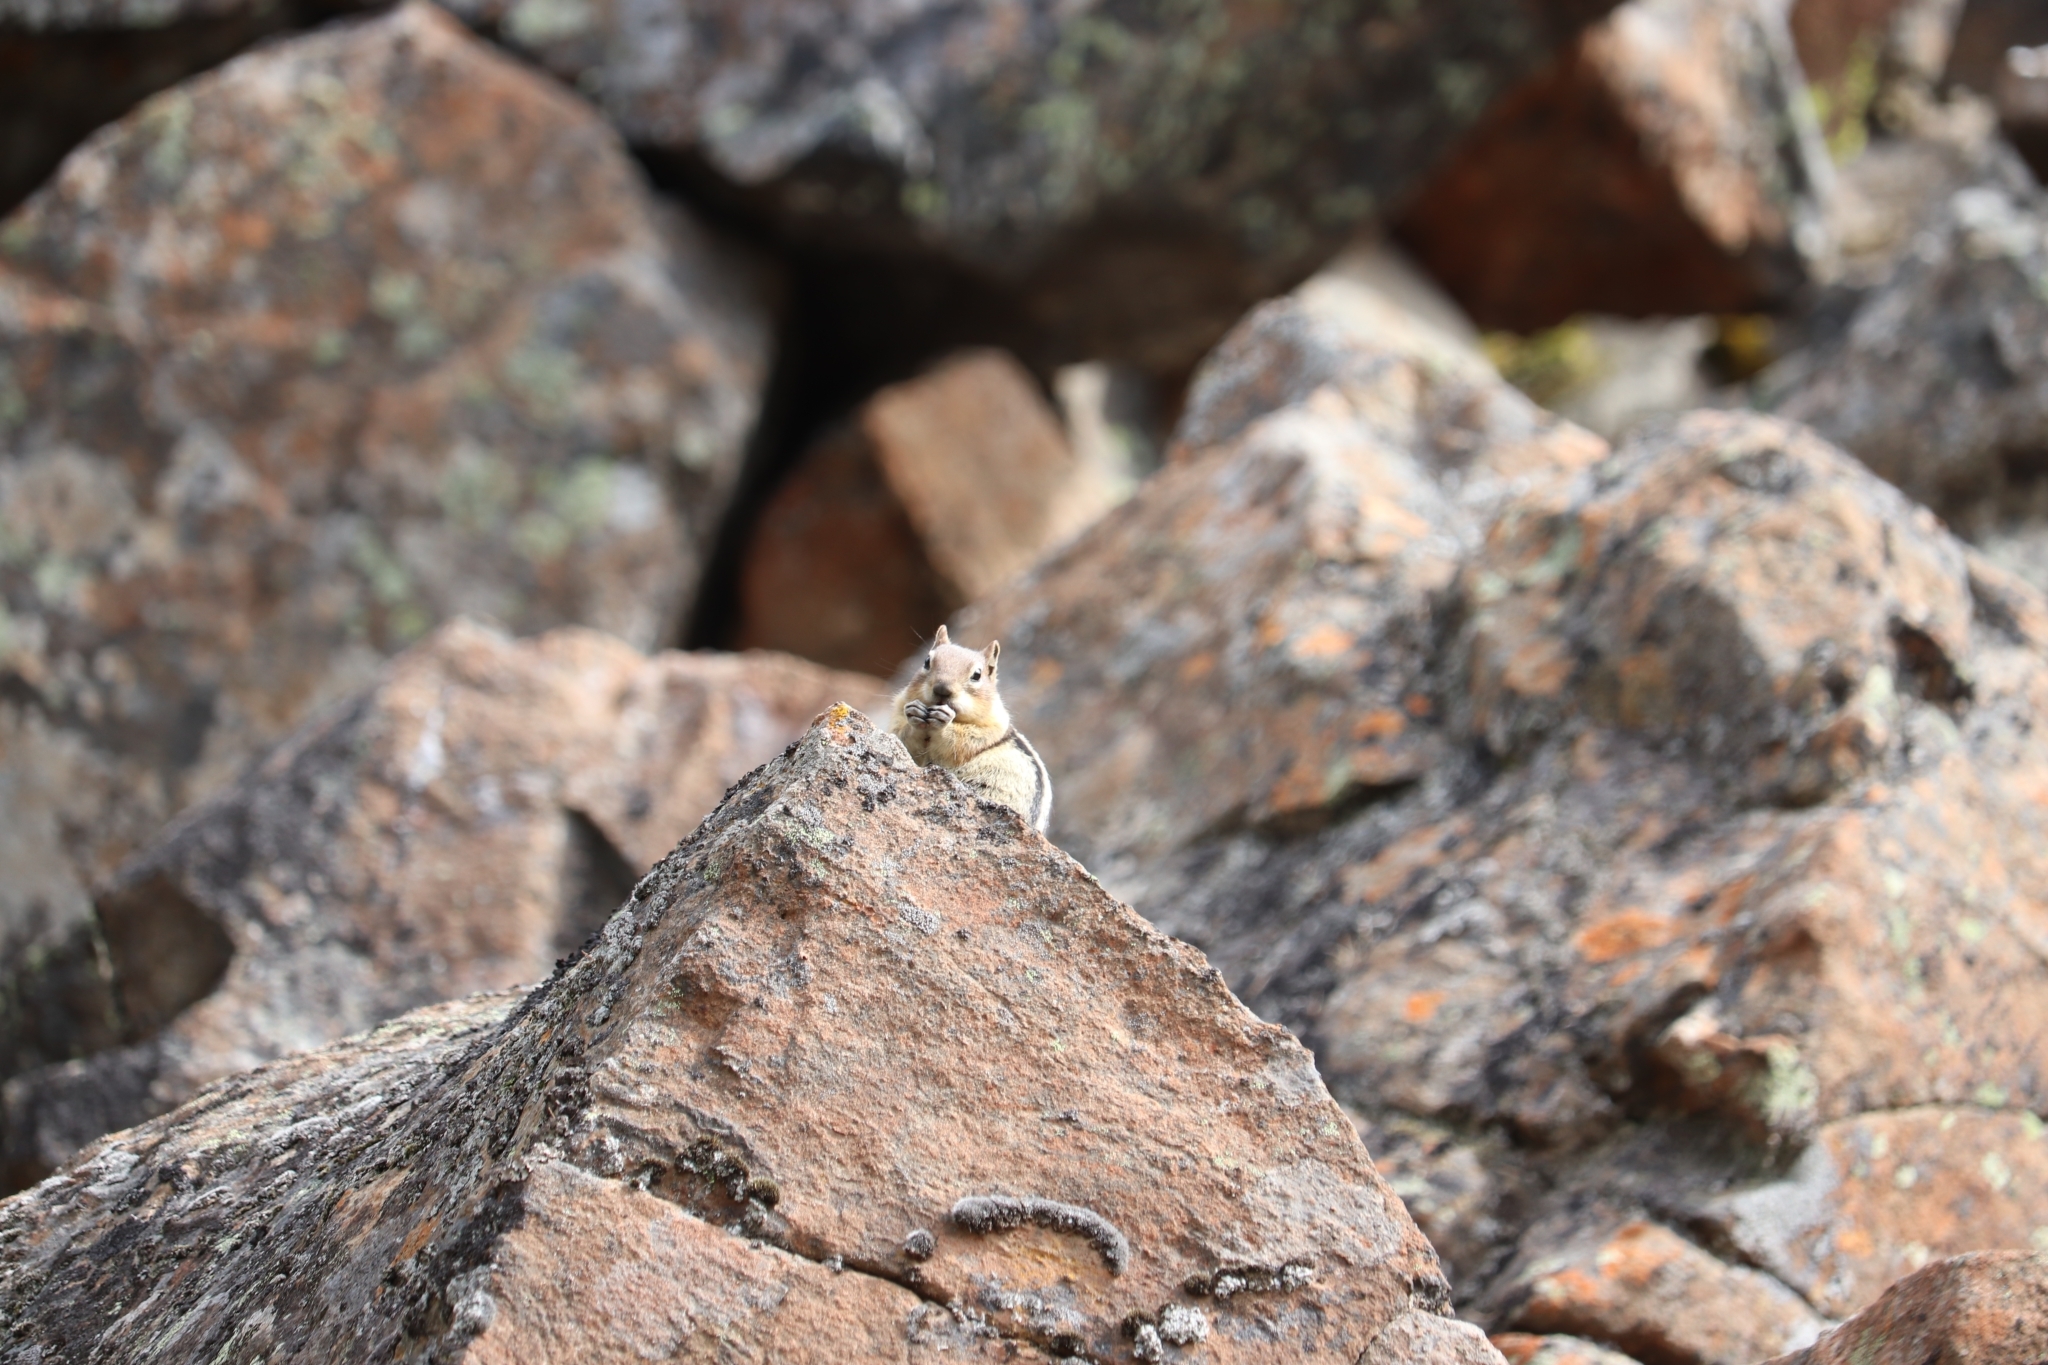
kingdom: Animalia
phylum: Chordata
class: Mammalia
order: Rodentia
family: Sciuridae
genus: Callospermophilus
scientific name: Callospermophilus lateralis
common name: Golden-mantled ground squirrel
